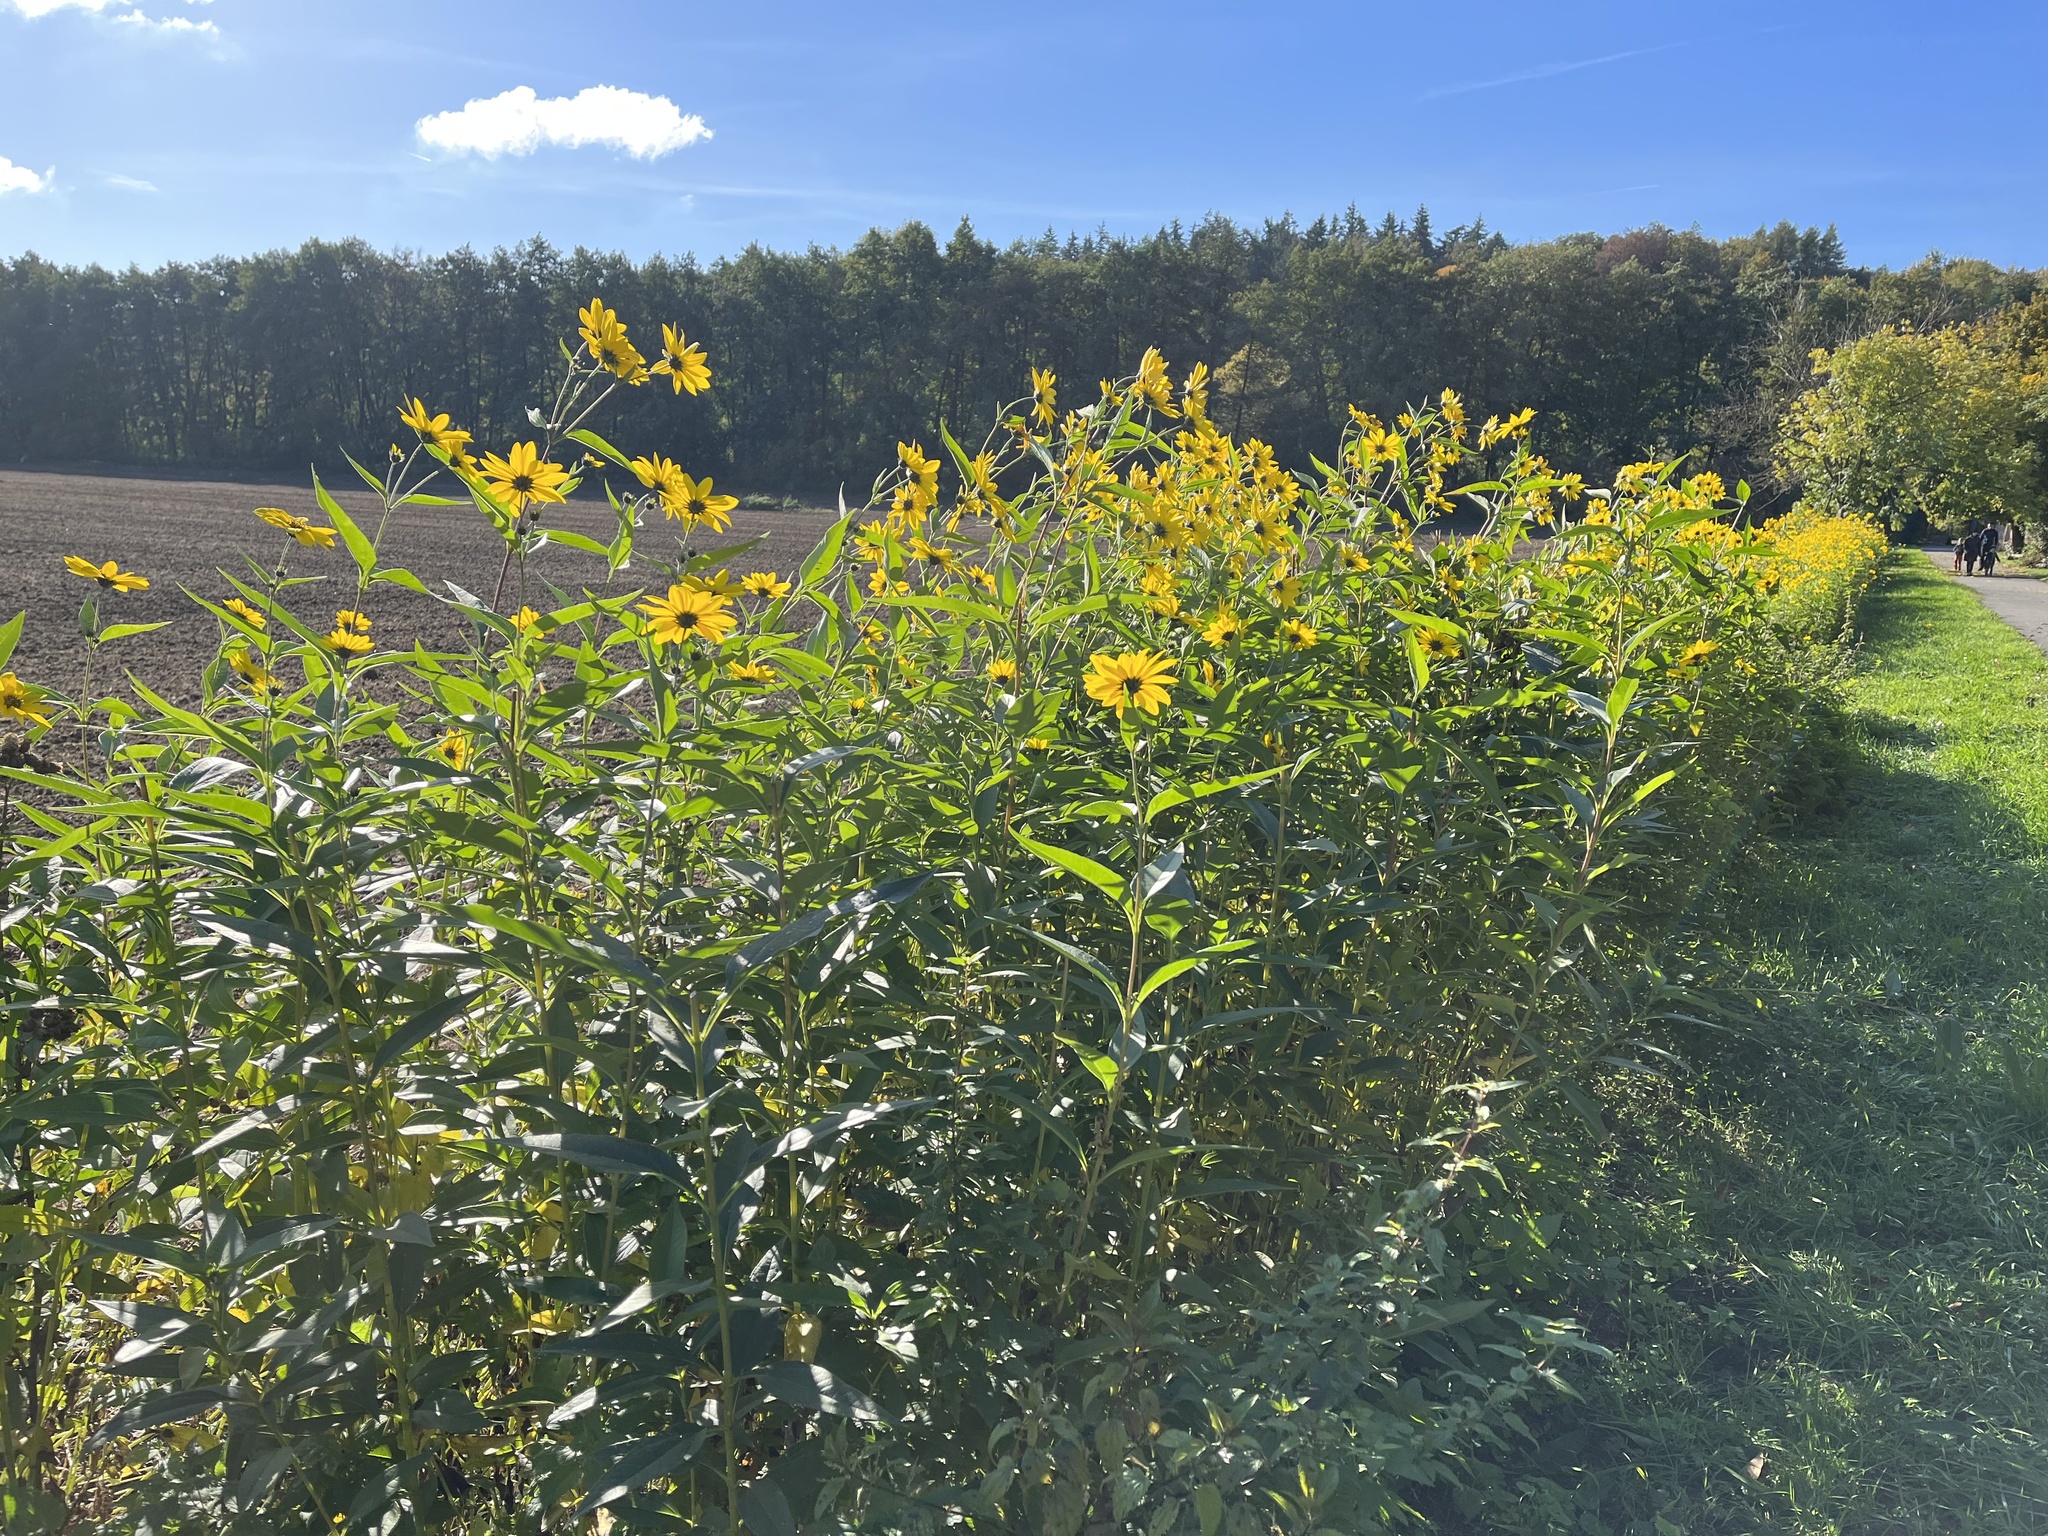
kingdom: Plantae
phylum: Tracheophyta
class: Magnoliopsida
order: Asterales
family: Asteraceae
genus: Helianthus
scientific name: Helianthus tuberosus
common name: Jerusalem artichoke
